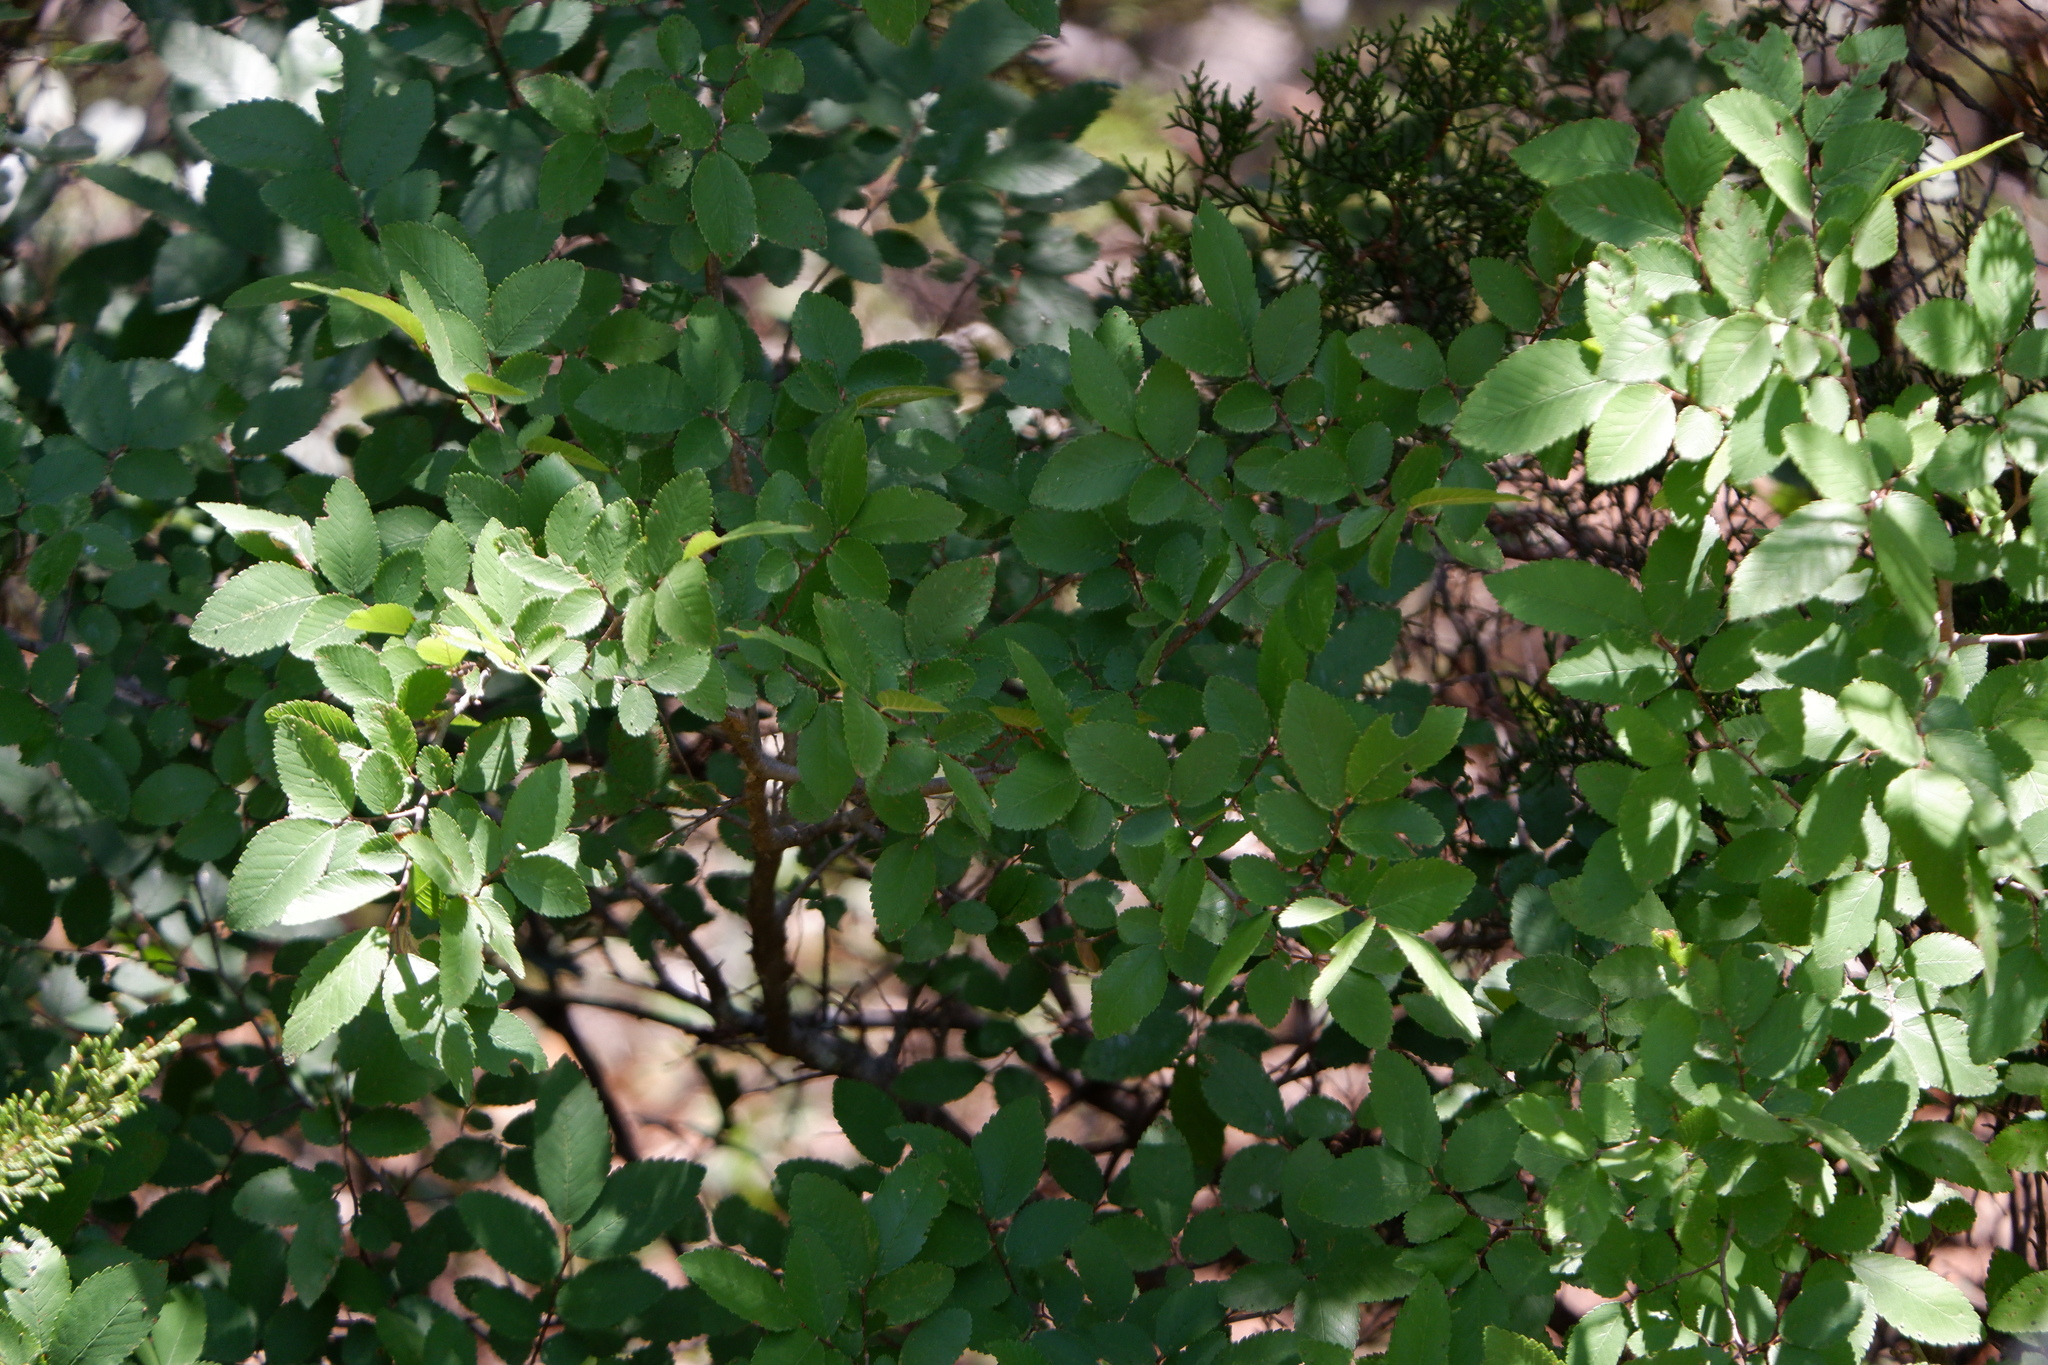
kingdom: Plantae
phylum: Tracheophyta
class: Magnoliopsida
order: Rosales
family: Ulmaceae
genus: Ulmus
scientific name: Ulmus crassifolia
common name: Basket elm
